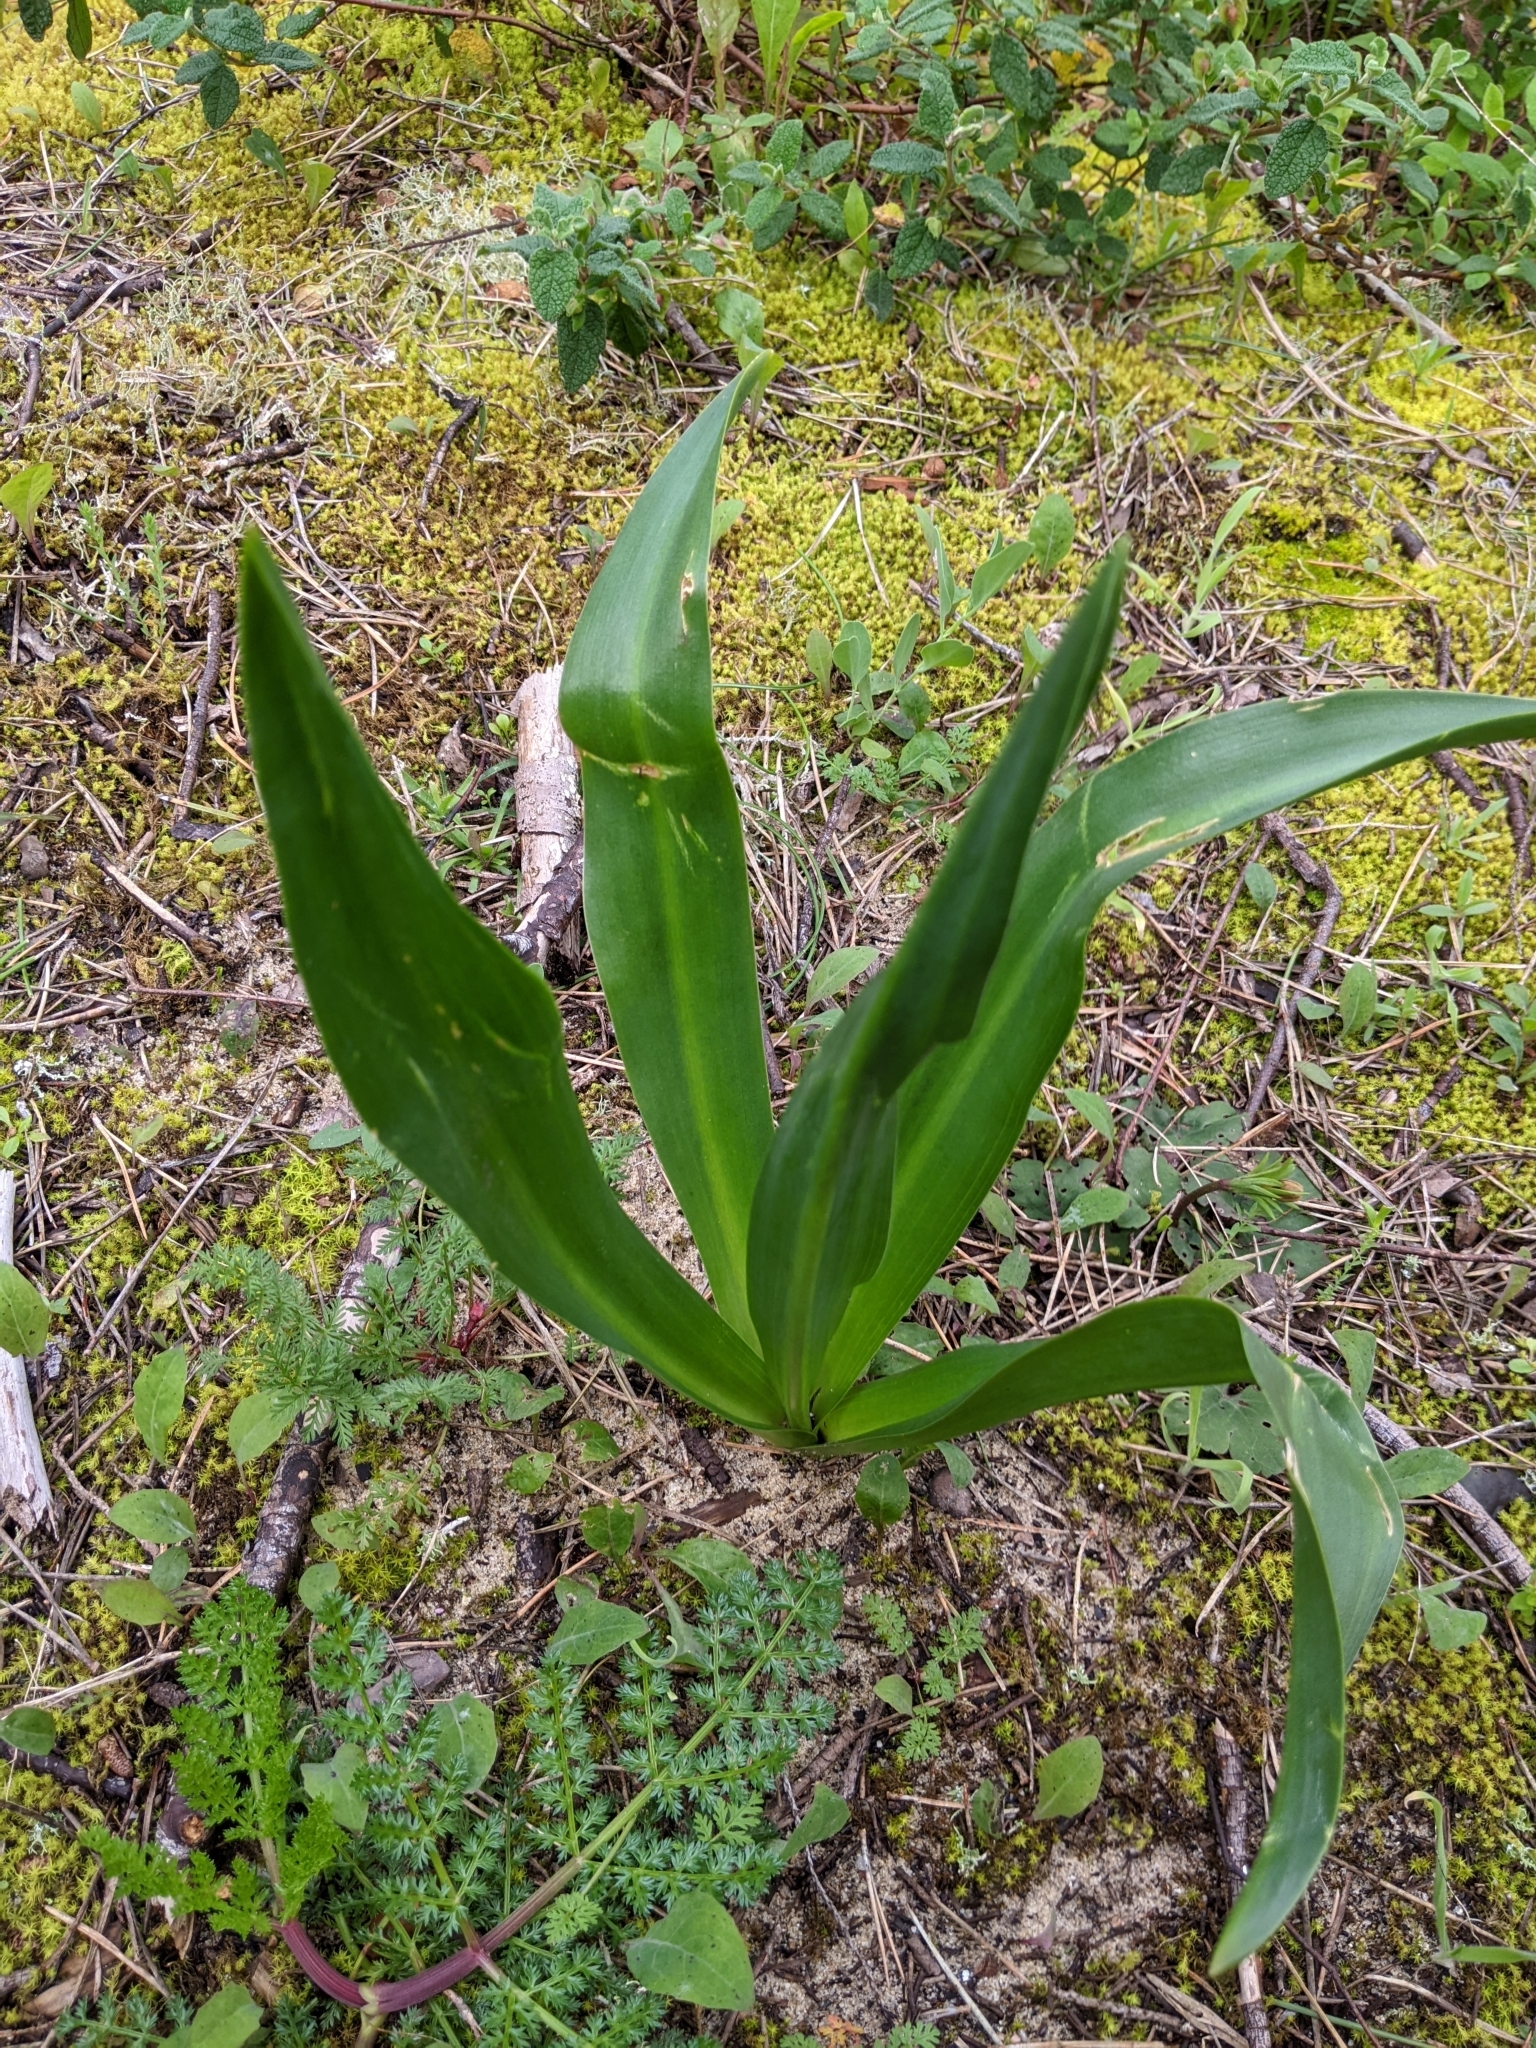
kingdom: Plantae
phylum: Tracheophyta
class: Liliopsida
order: Asparagales
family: Asparagaceae
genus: Drimia
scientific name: Drimia maritima
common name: Maritime squill
